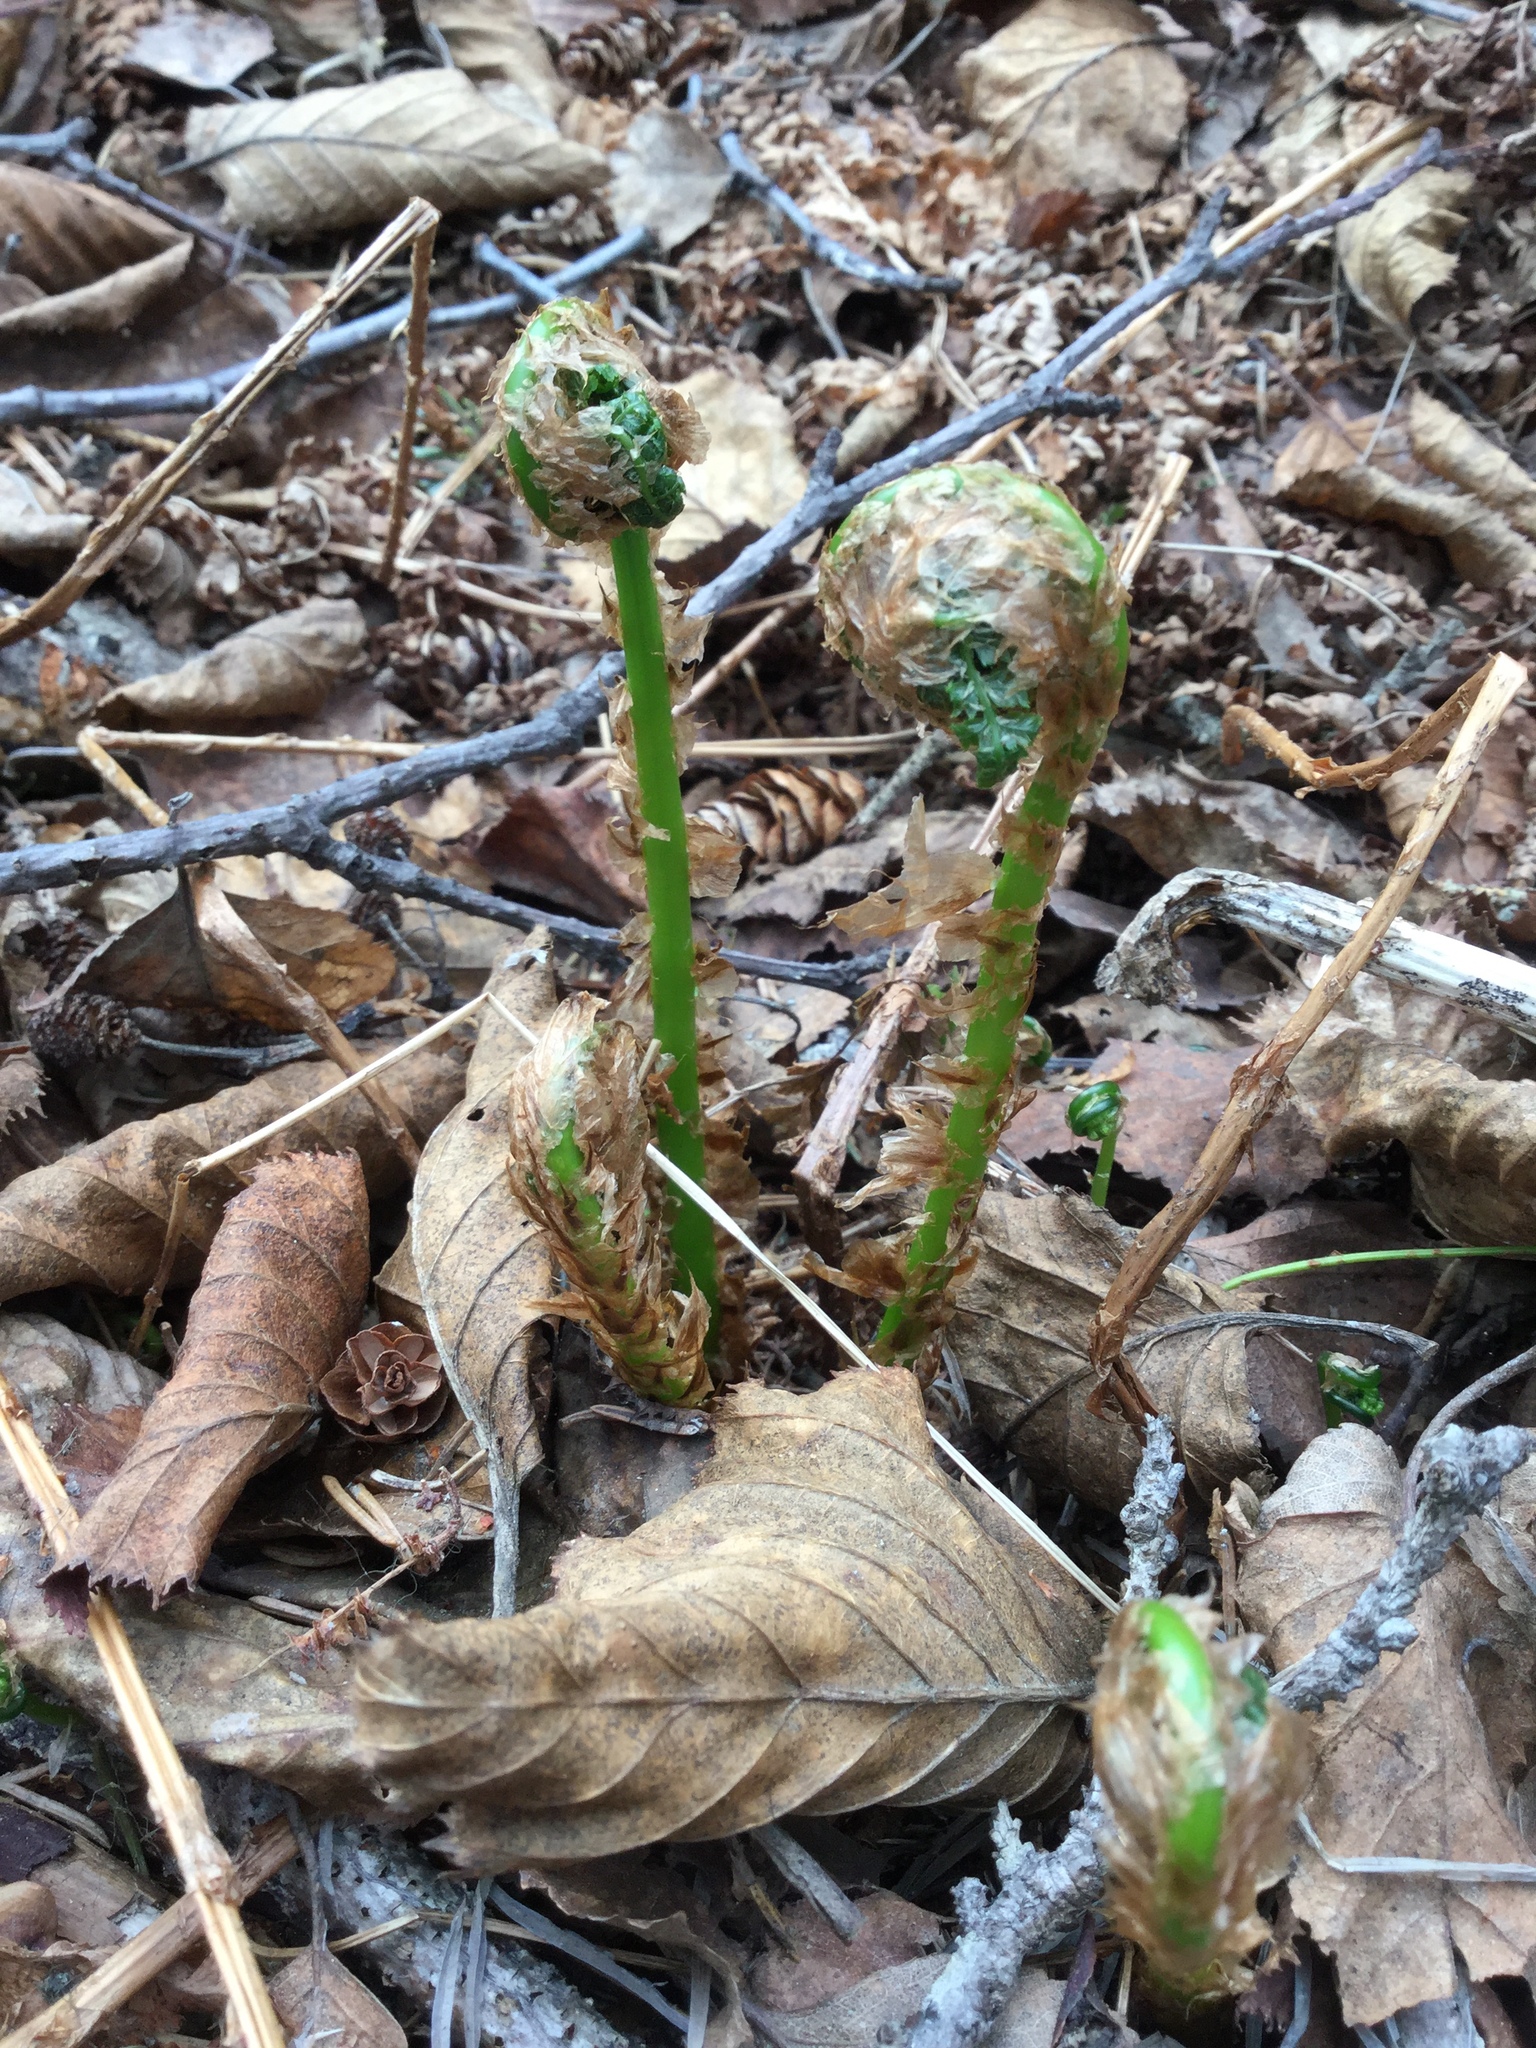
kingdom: Plantae
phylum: Tracheophyta
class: Polypodiopsida
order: Polypodiales
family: Dryopteridaceae
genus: Dryopteris
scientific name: Dryopteris expansa
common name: Northern buckler fern
